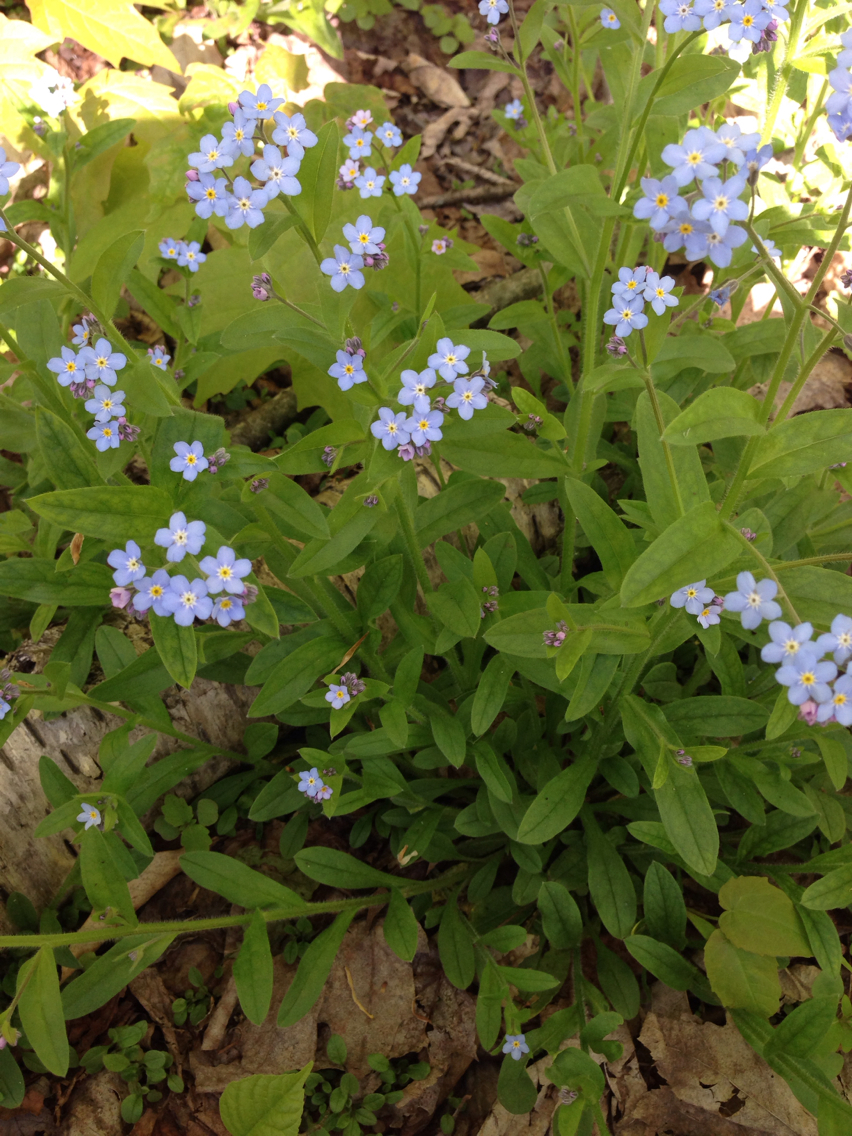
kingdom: Plantae
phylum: Tracheophyta
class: Magnoliopsida
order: Boraginales
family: Boraginaceae
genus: Myosotis
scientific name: Myosotis sylvatica
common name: Wood forget-me-not
